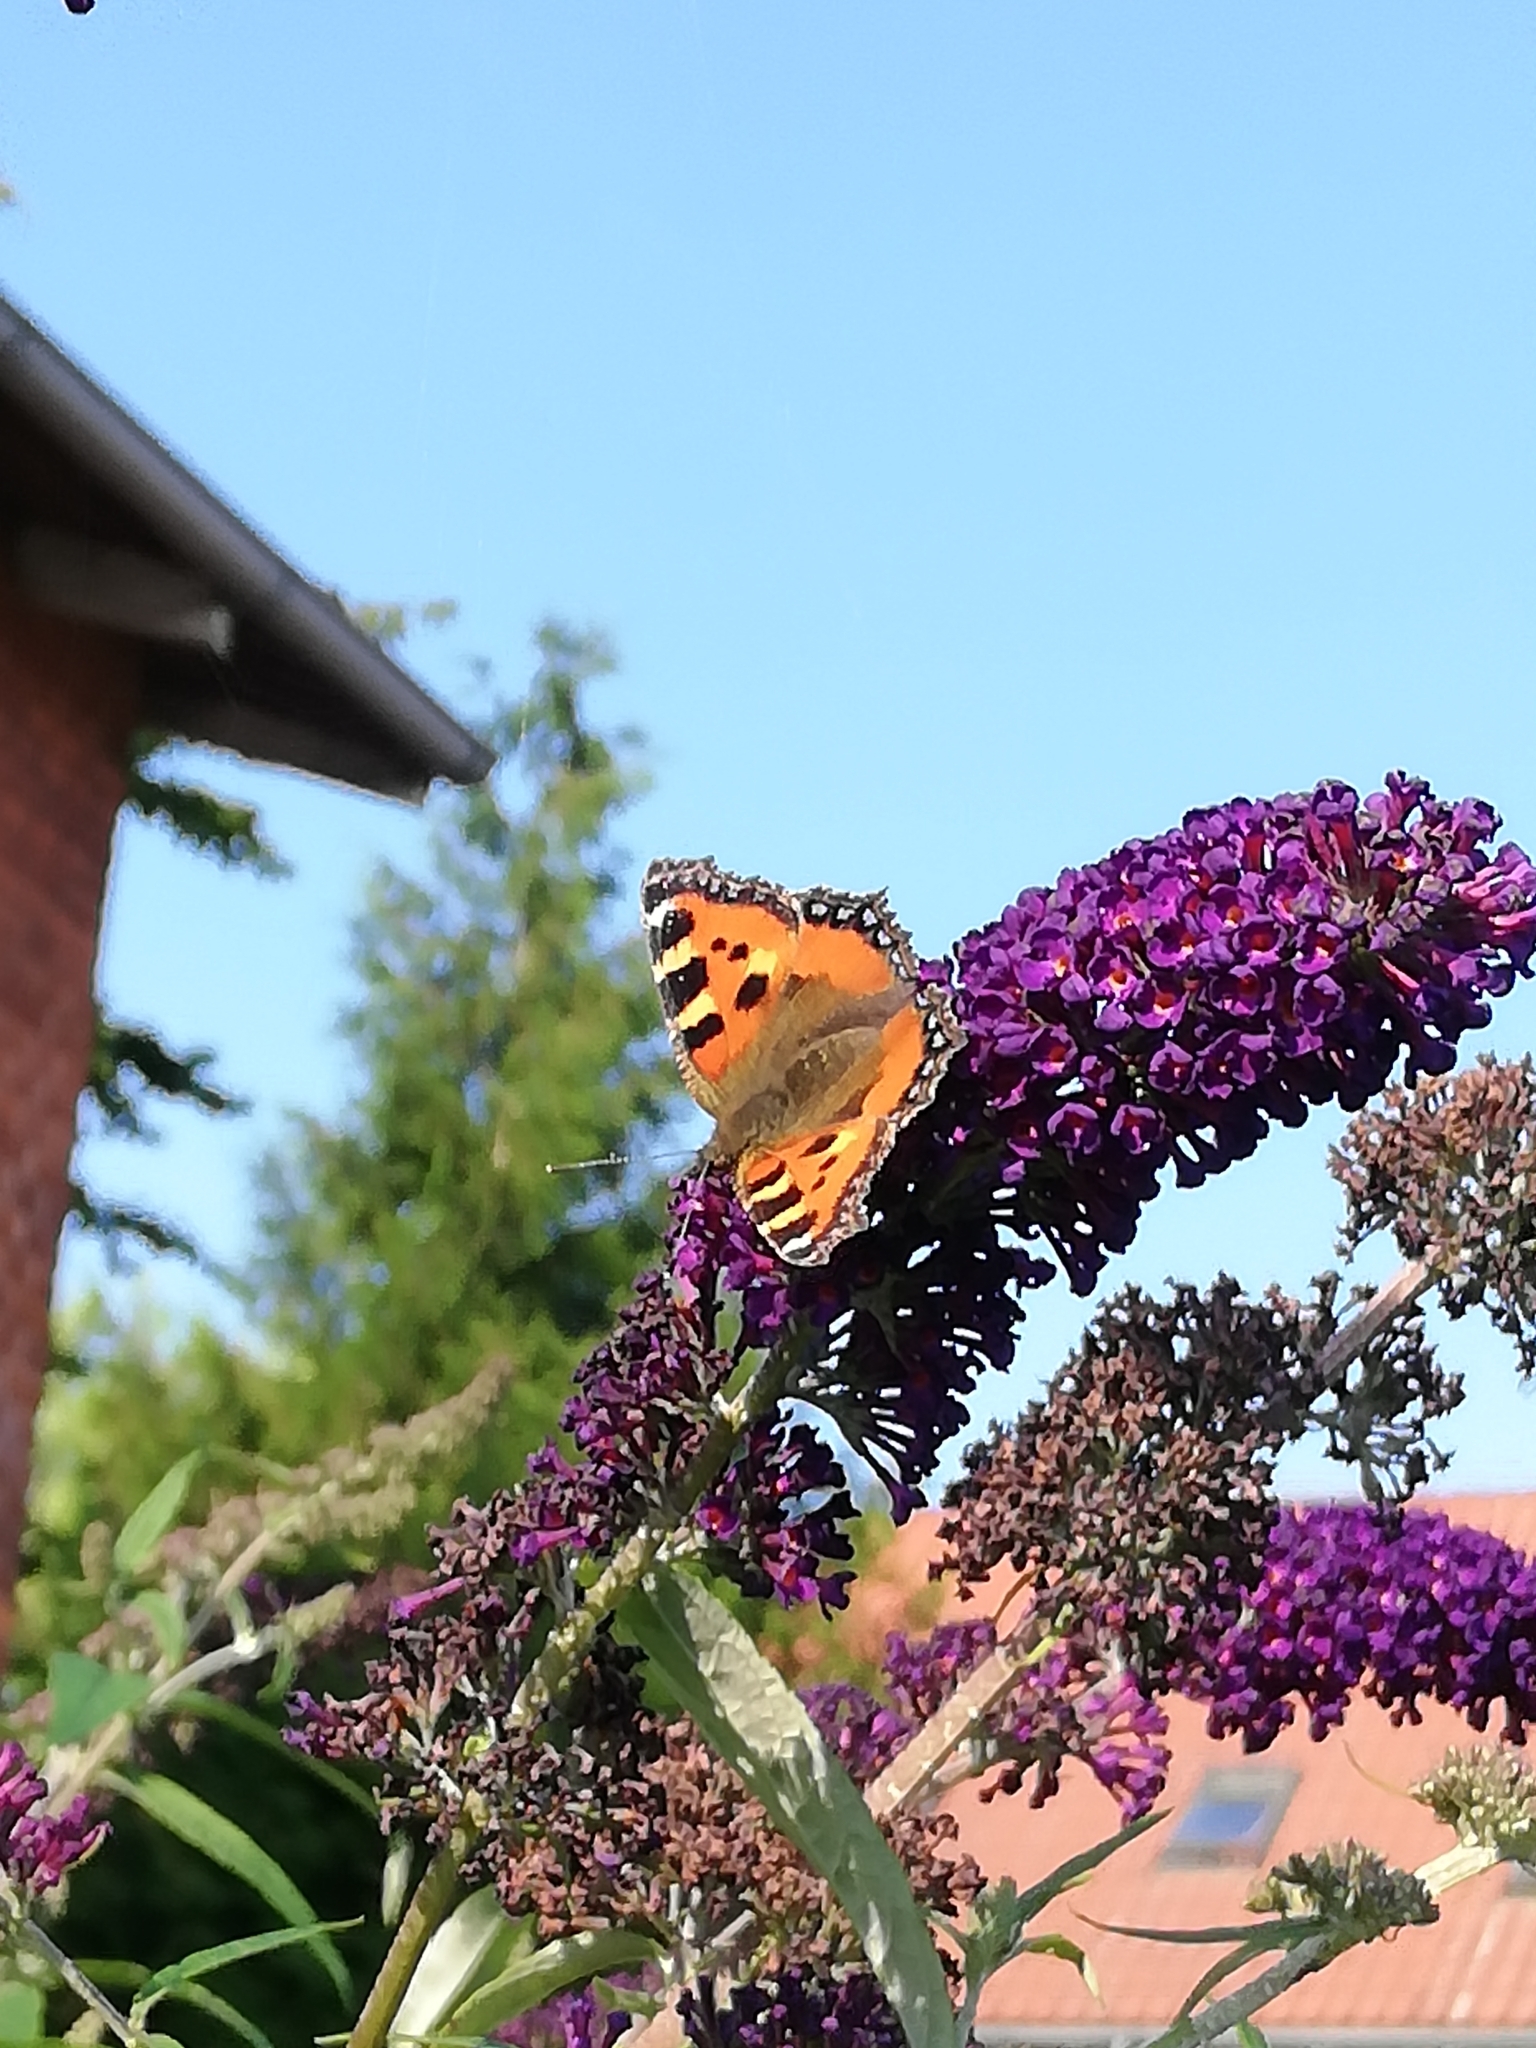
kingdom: Animalia
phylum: Arthropoda
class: Insecta
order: Lepidoptera
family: Nymphalidae
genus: Aglais
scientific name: Aglais urticae
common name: Small tortoiseshell
